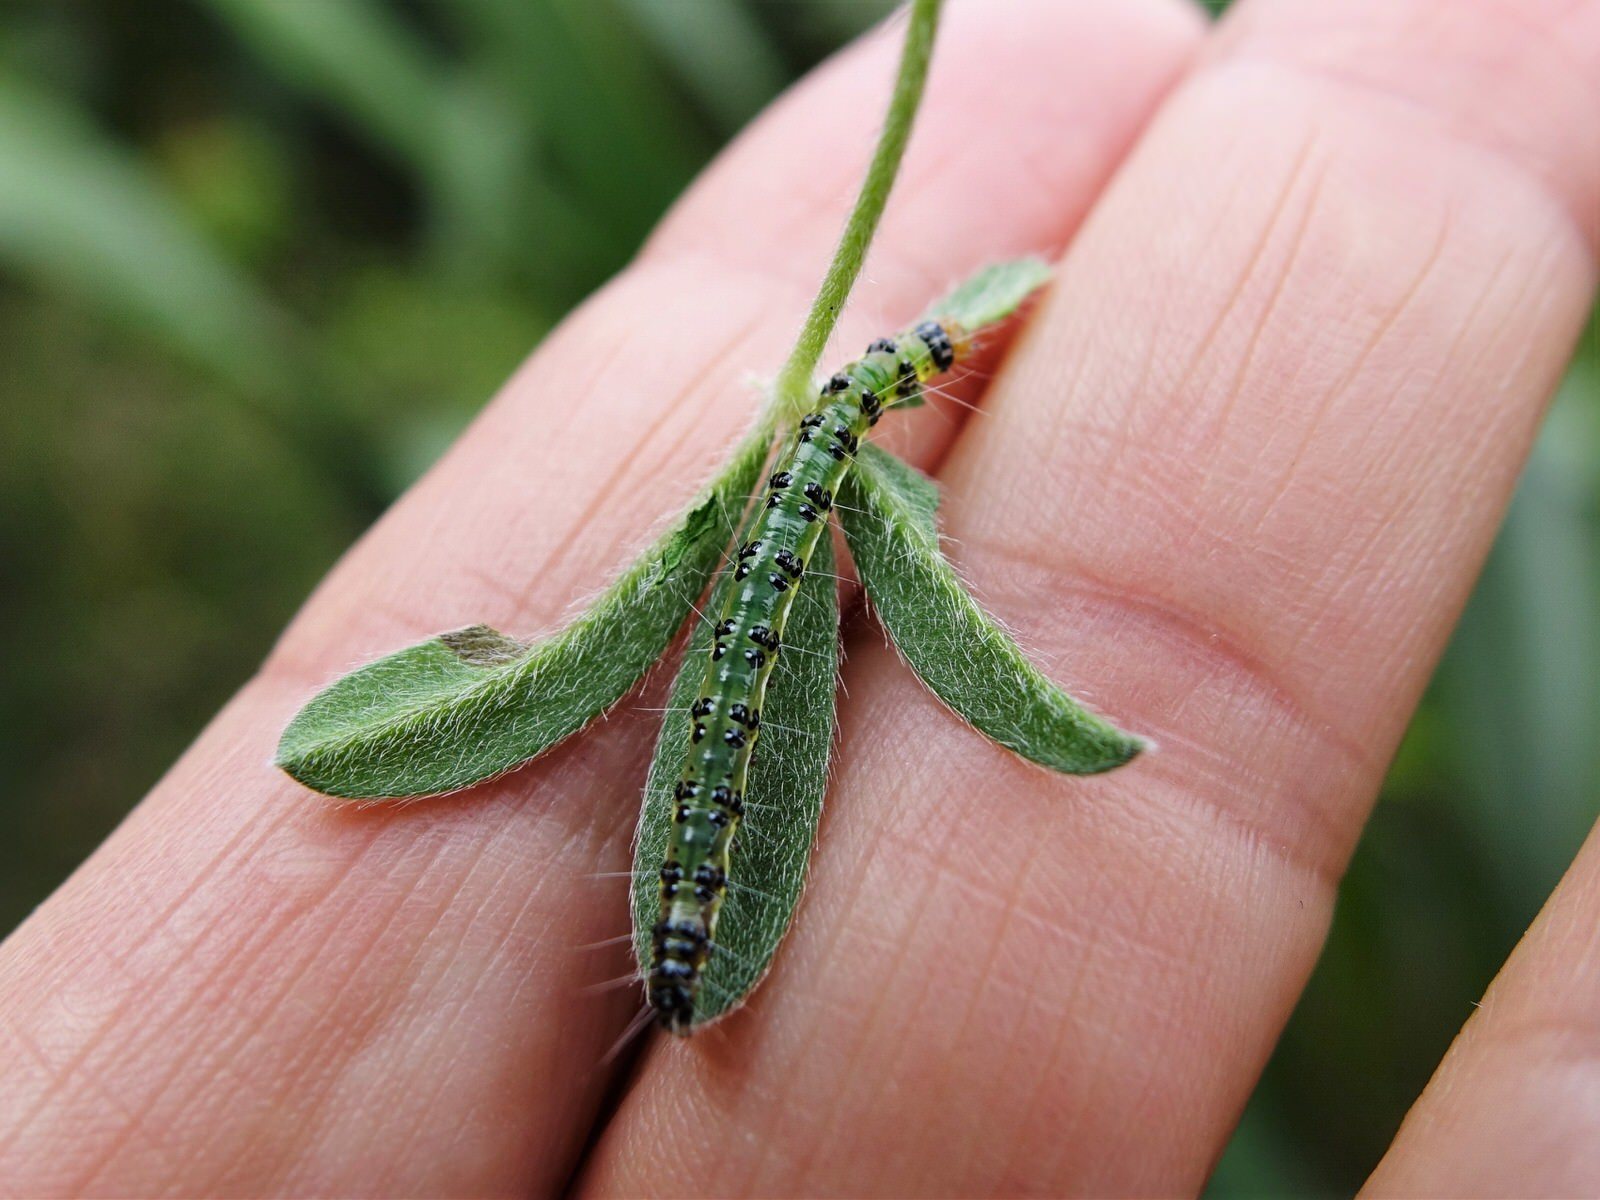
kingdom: Animalia
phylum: Arthropoda
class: Insecta
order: Lepidoptera
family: Crambidae
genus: Uresiphita
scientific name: Uresiphita polygonalis
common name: Moth
